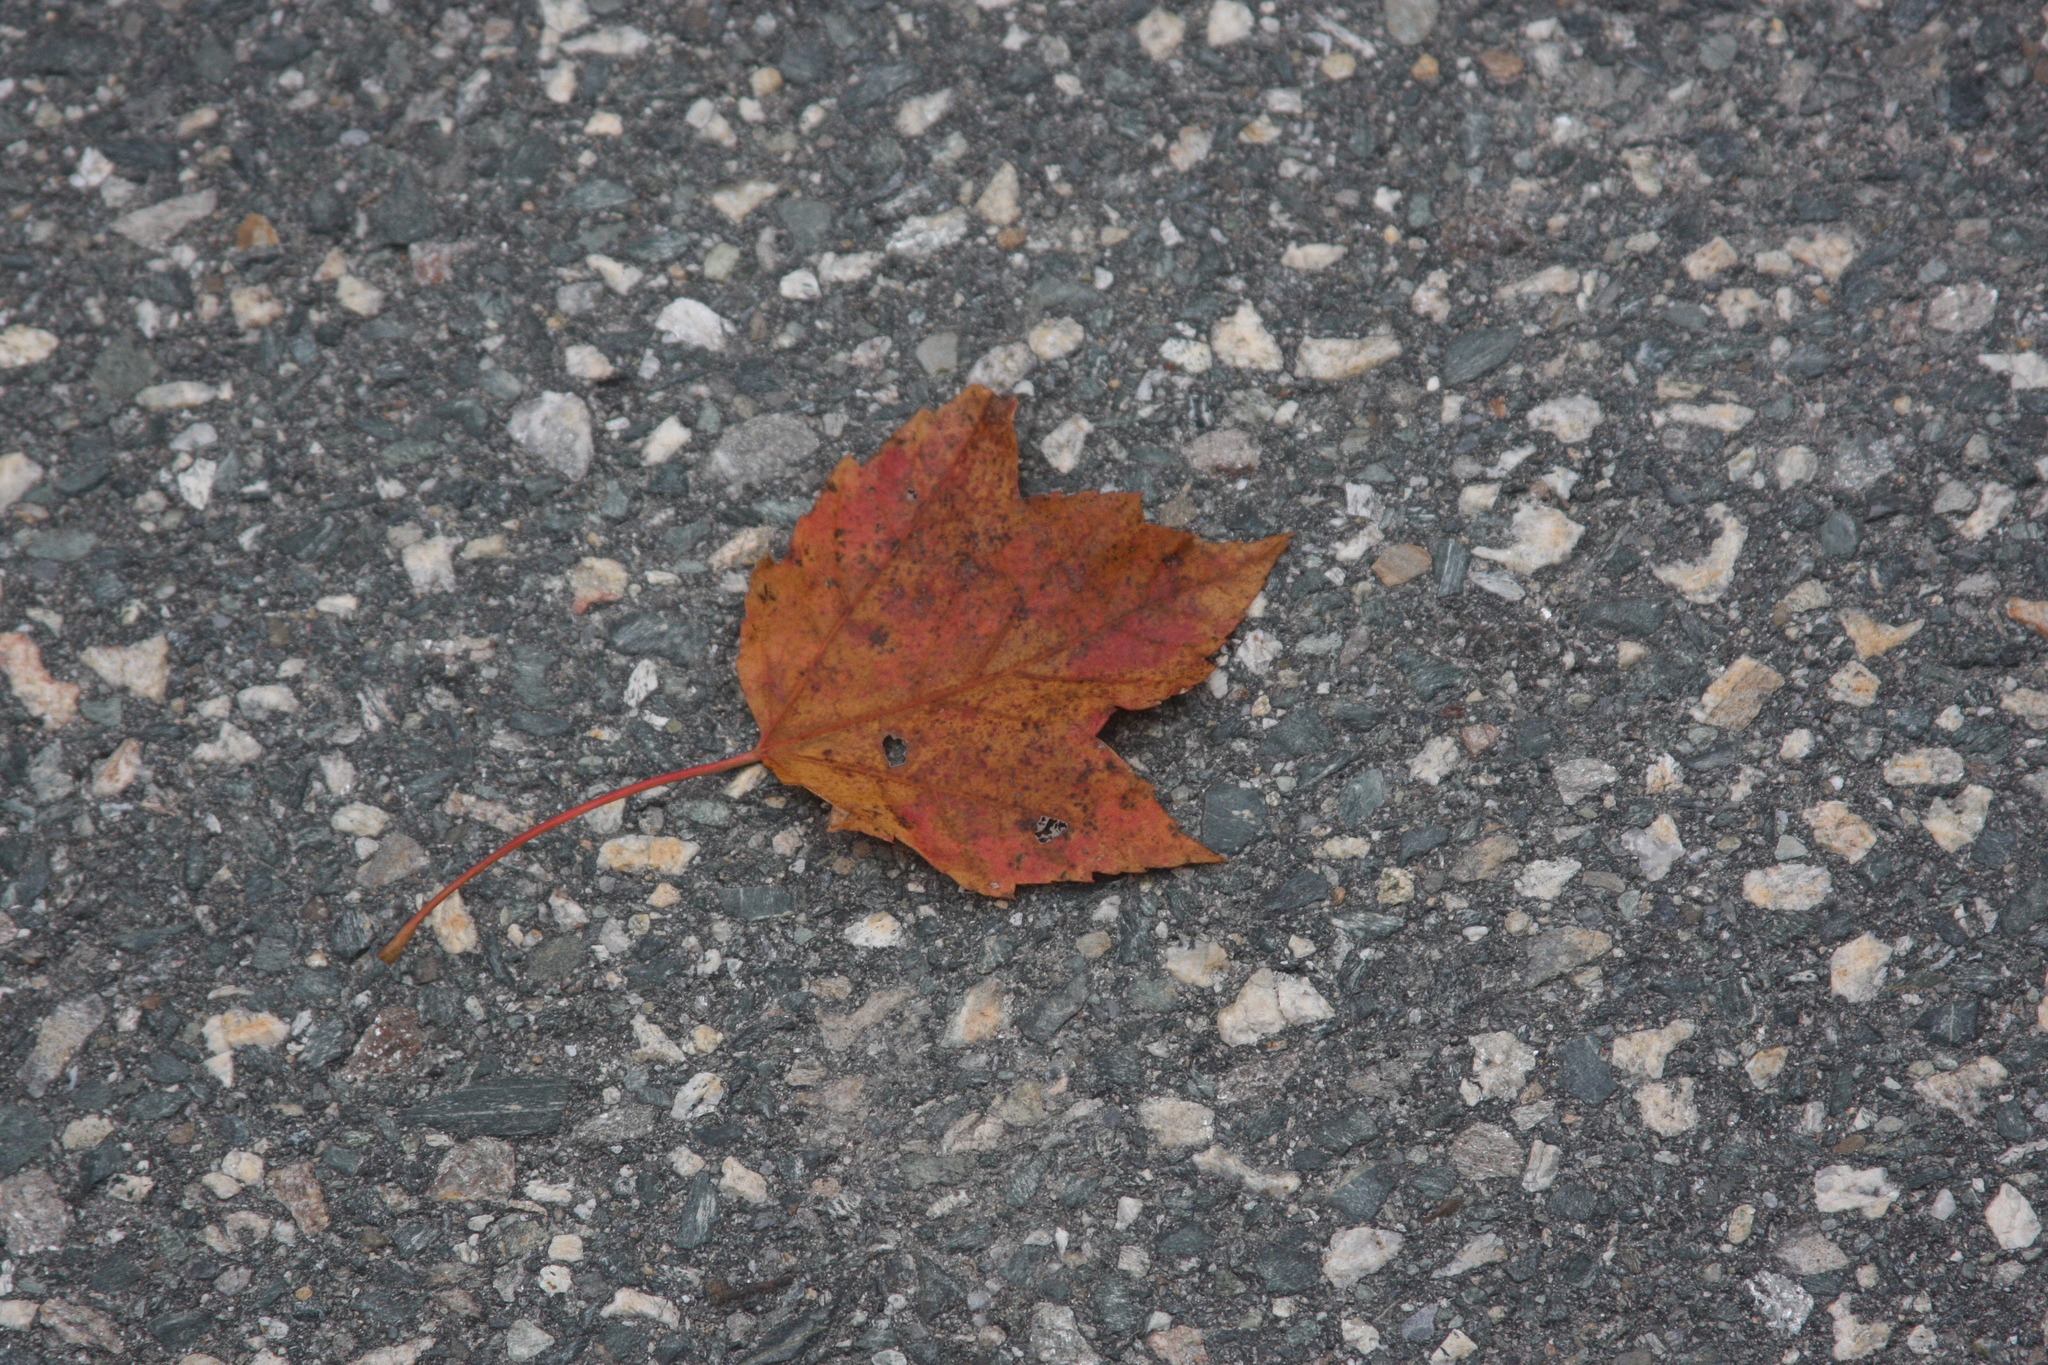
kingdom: Plantae
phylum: Tracheophyta
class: Magnoliopsida
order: Sapindales
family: Sapindaceae
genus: Acer
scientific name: Acer rubrum
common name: Red maple
